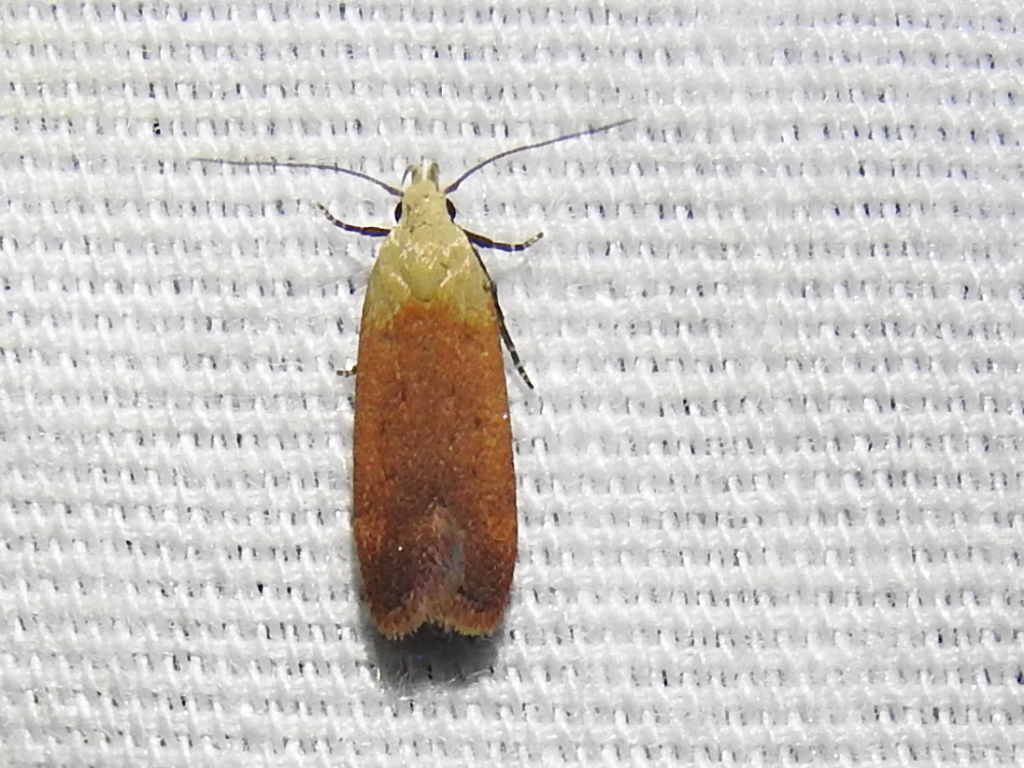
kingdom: Animalia
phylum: Arthropoda
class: Insecta
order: Lepidoptera
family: Gelechiidae
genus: Anacampsis
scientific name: Anacampsis fullonella
